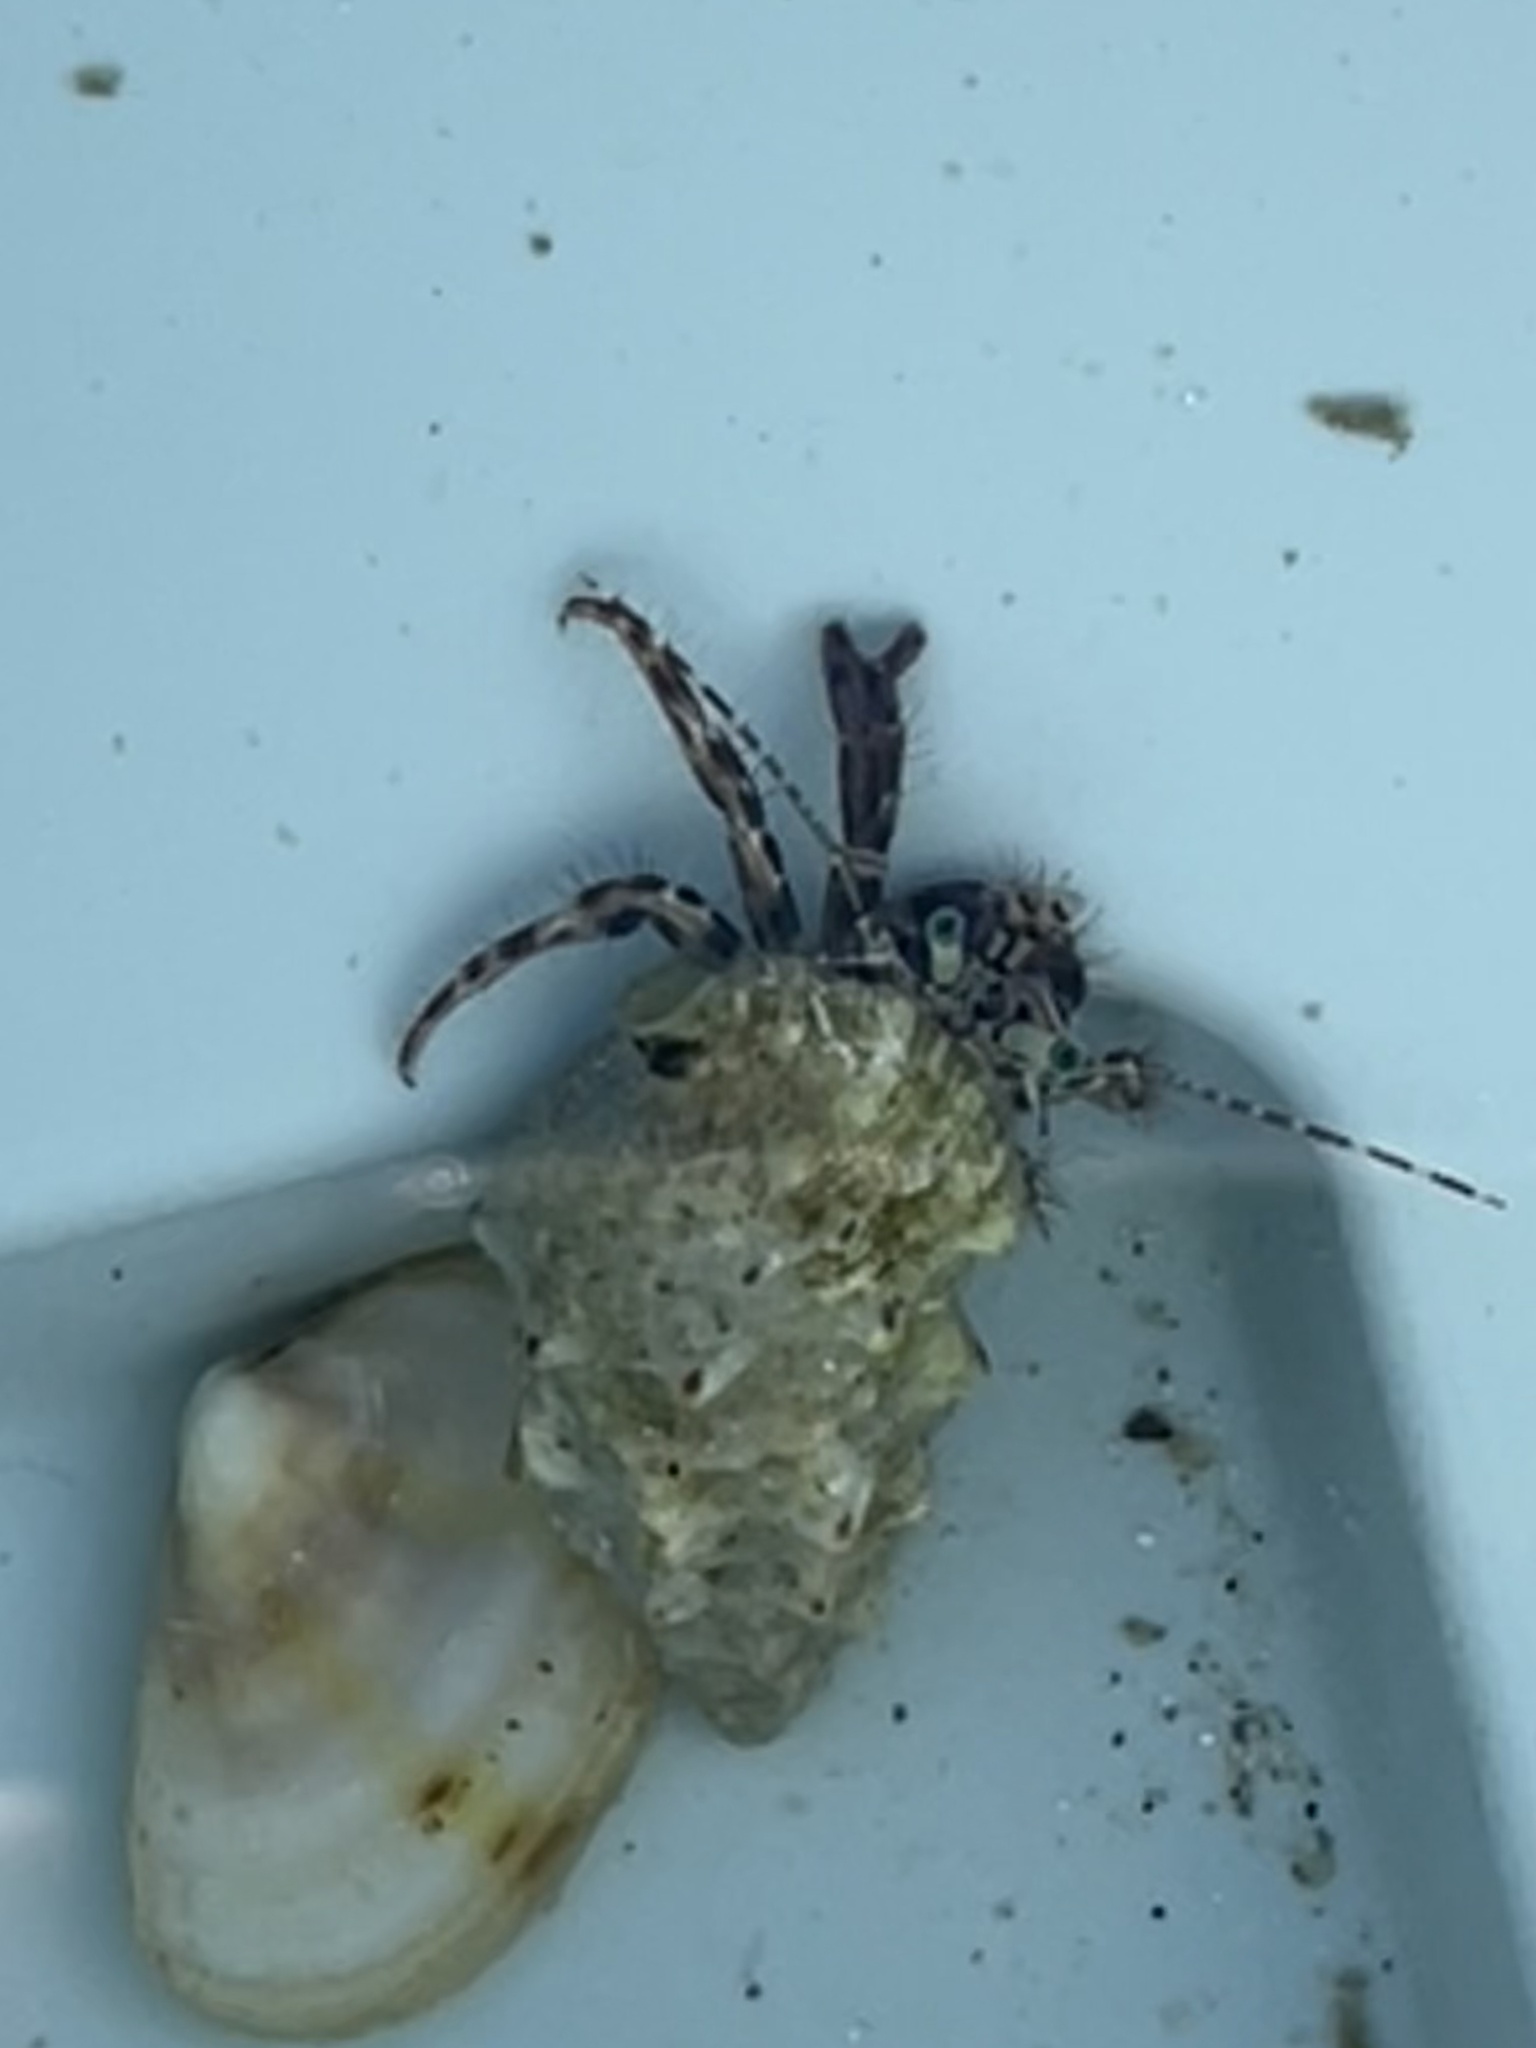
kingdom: Animalia
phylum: Arthropoda
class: Malacostraca
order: Decapoda
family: Paguridae
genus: Pagurus
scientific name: Pagurus anachoretus
